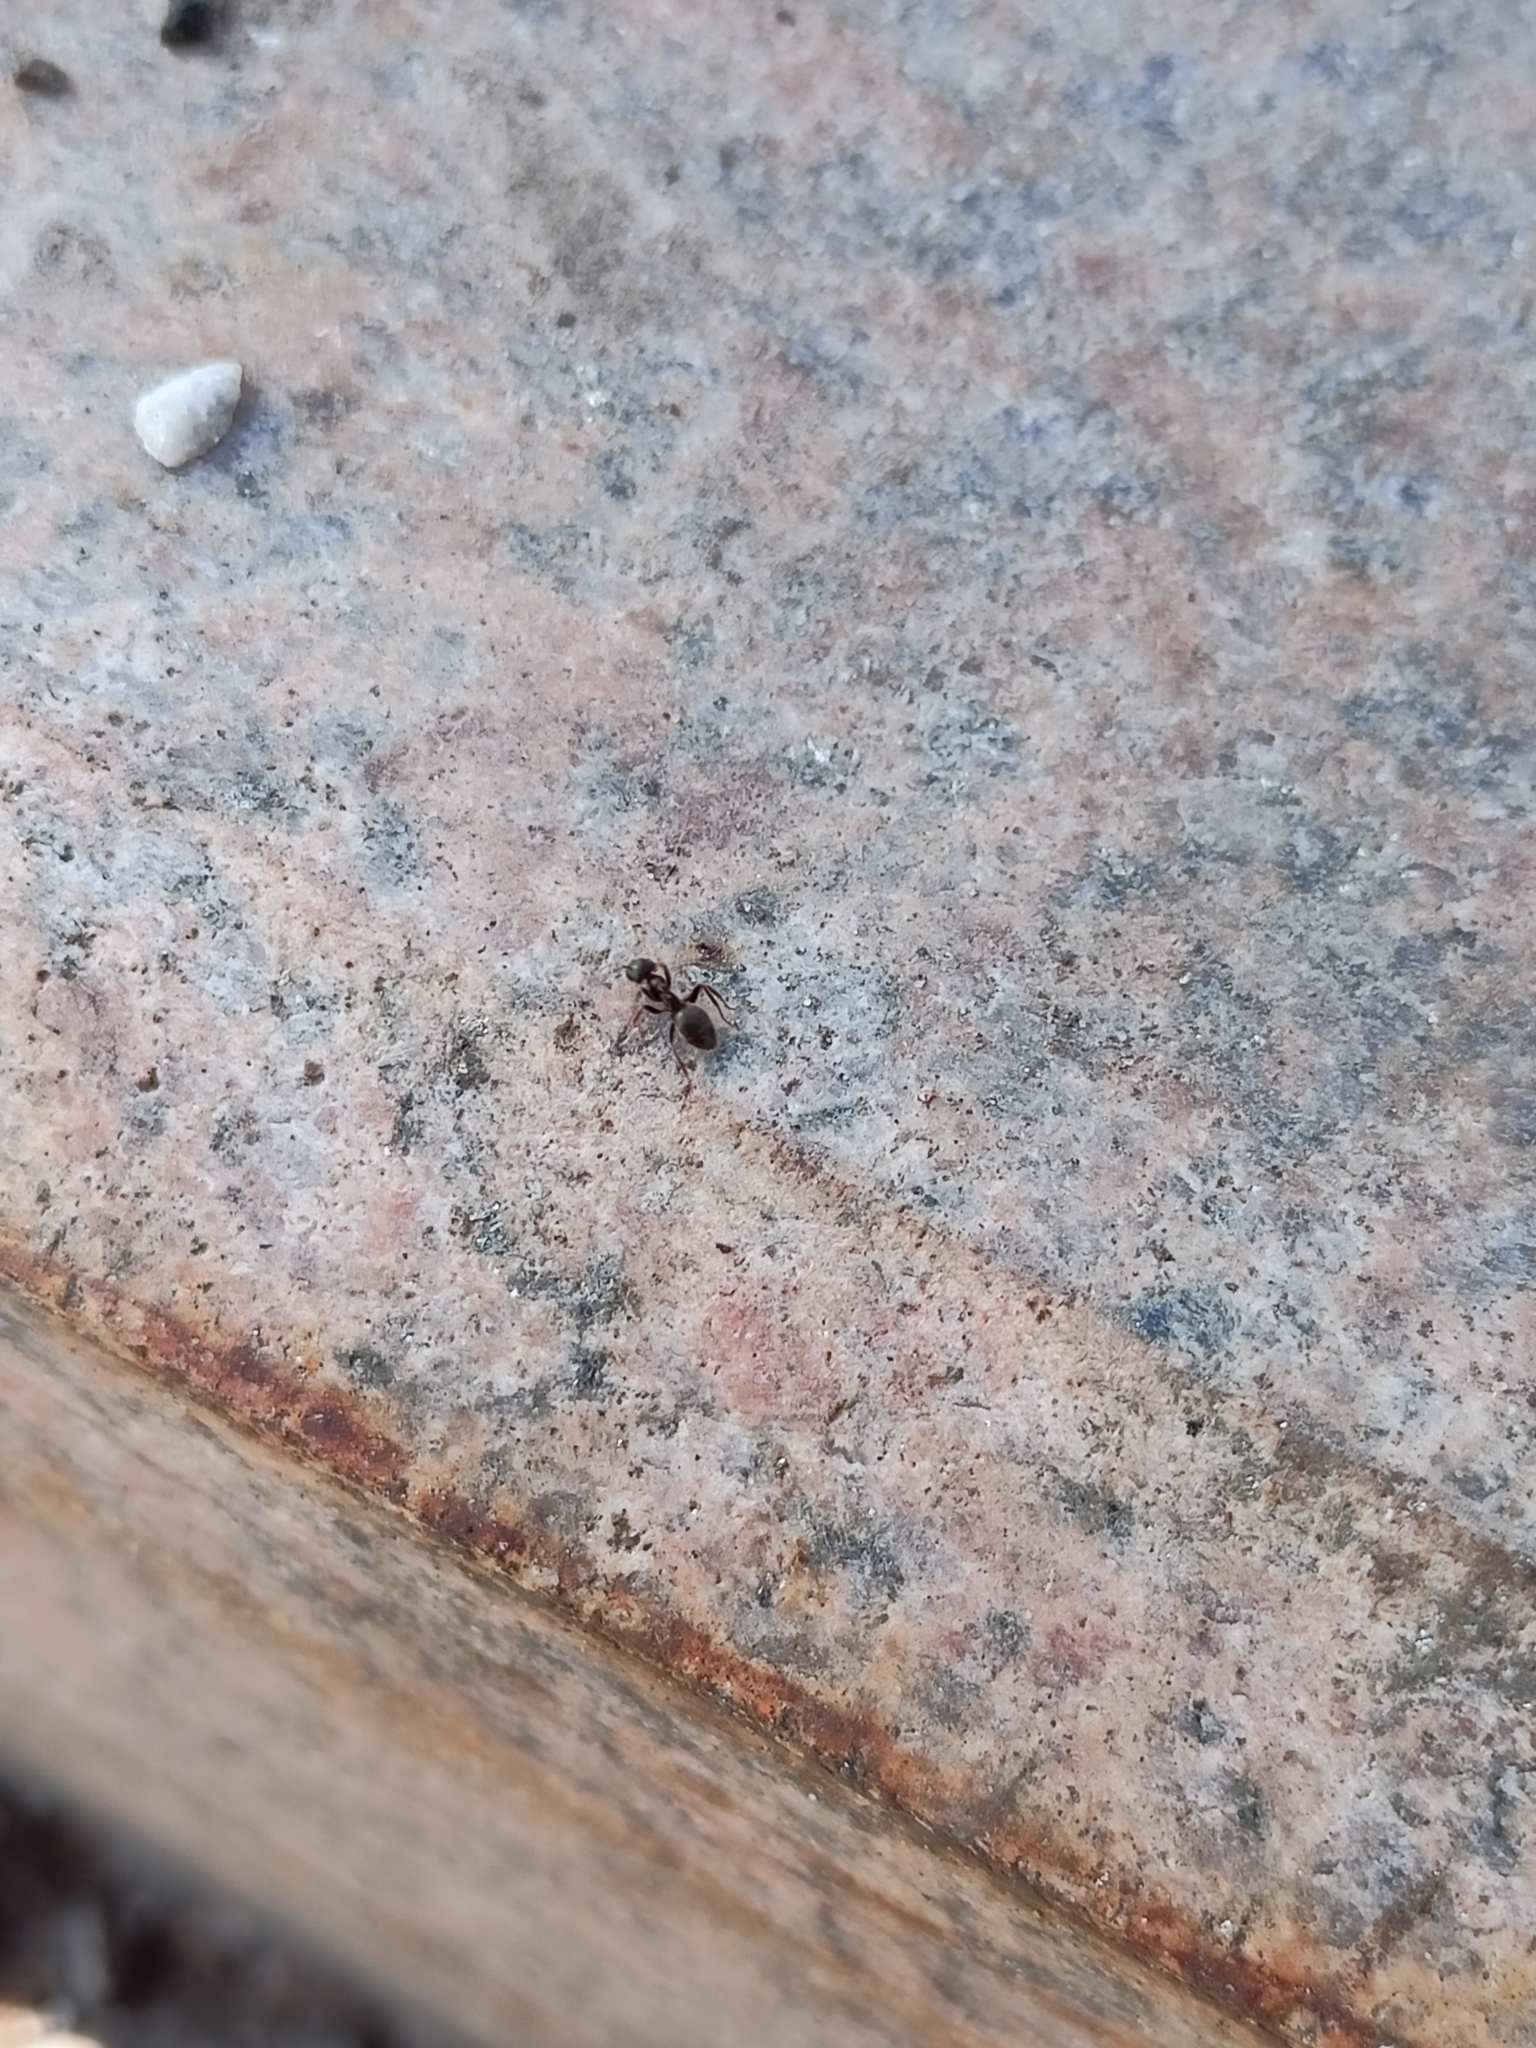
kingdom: Animalia
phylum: Arthropoda
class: Insecta
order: Hymenoptera
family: Formicidae
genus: Lasius
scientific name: Lasius niger
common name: Small black ant
